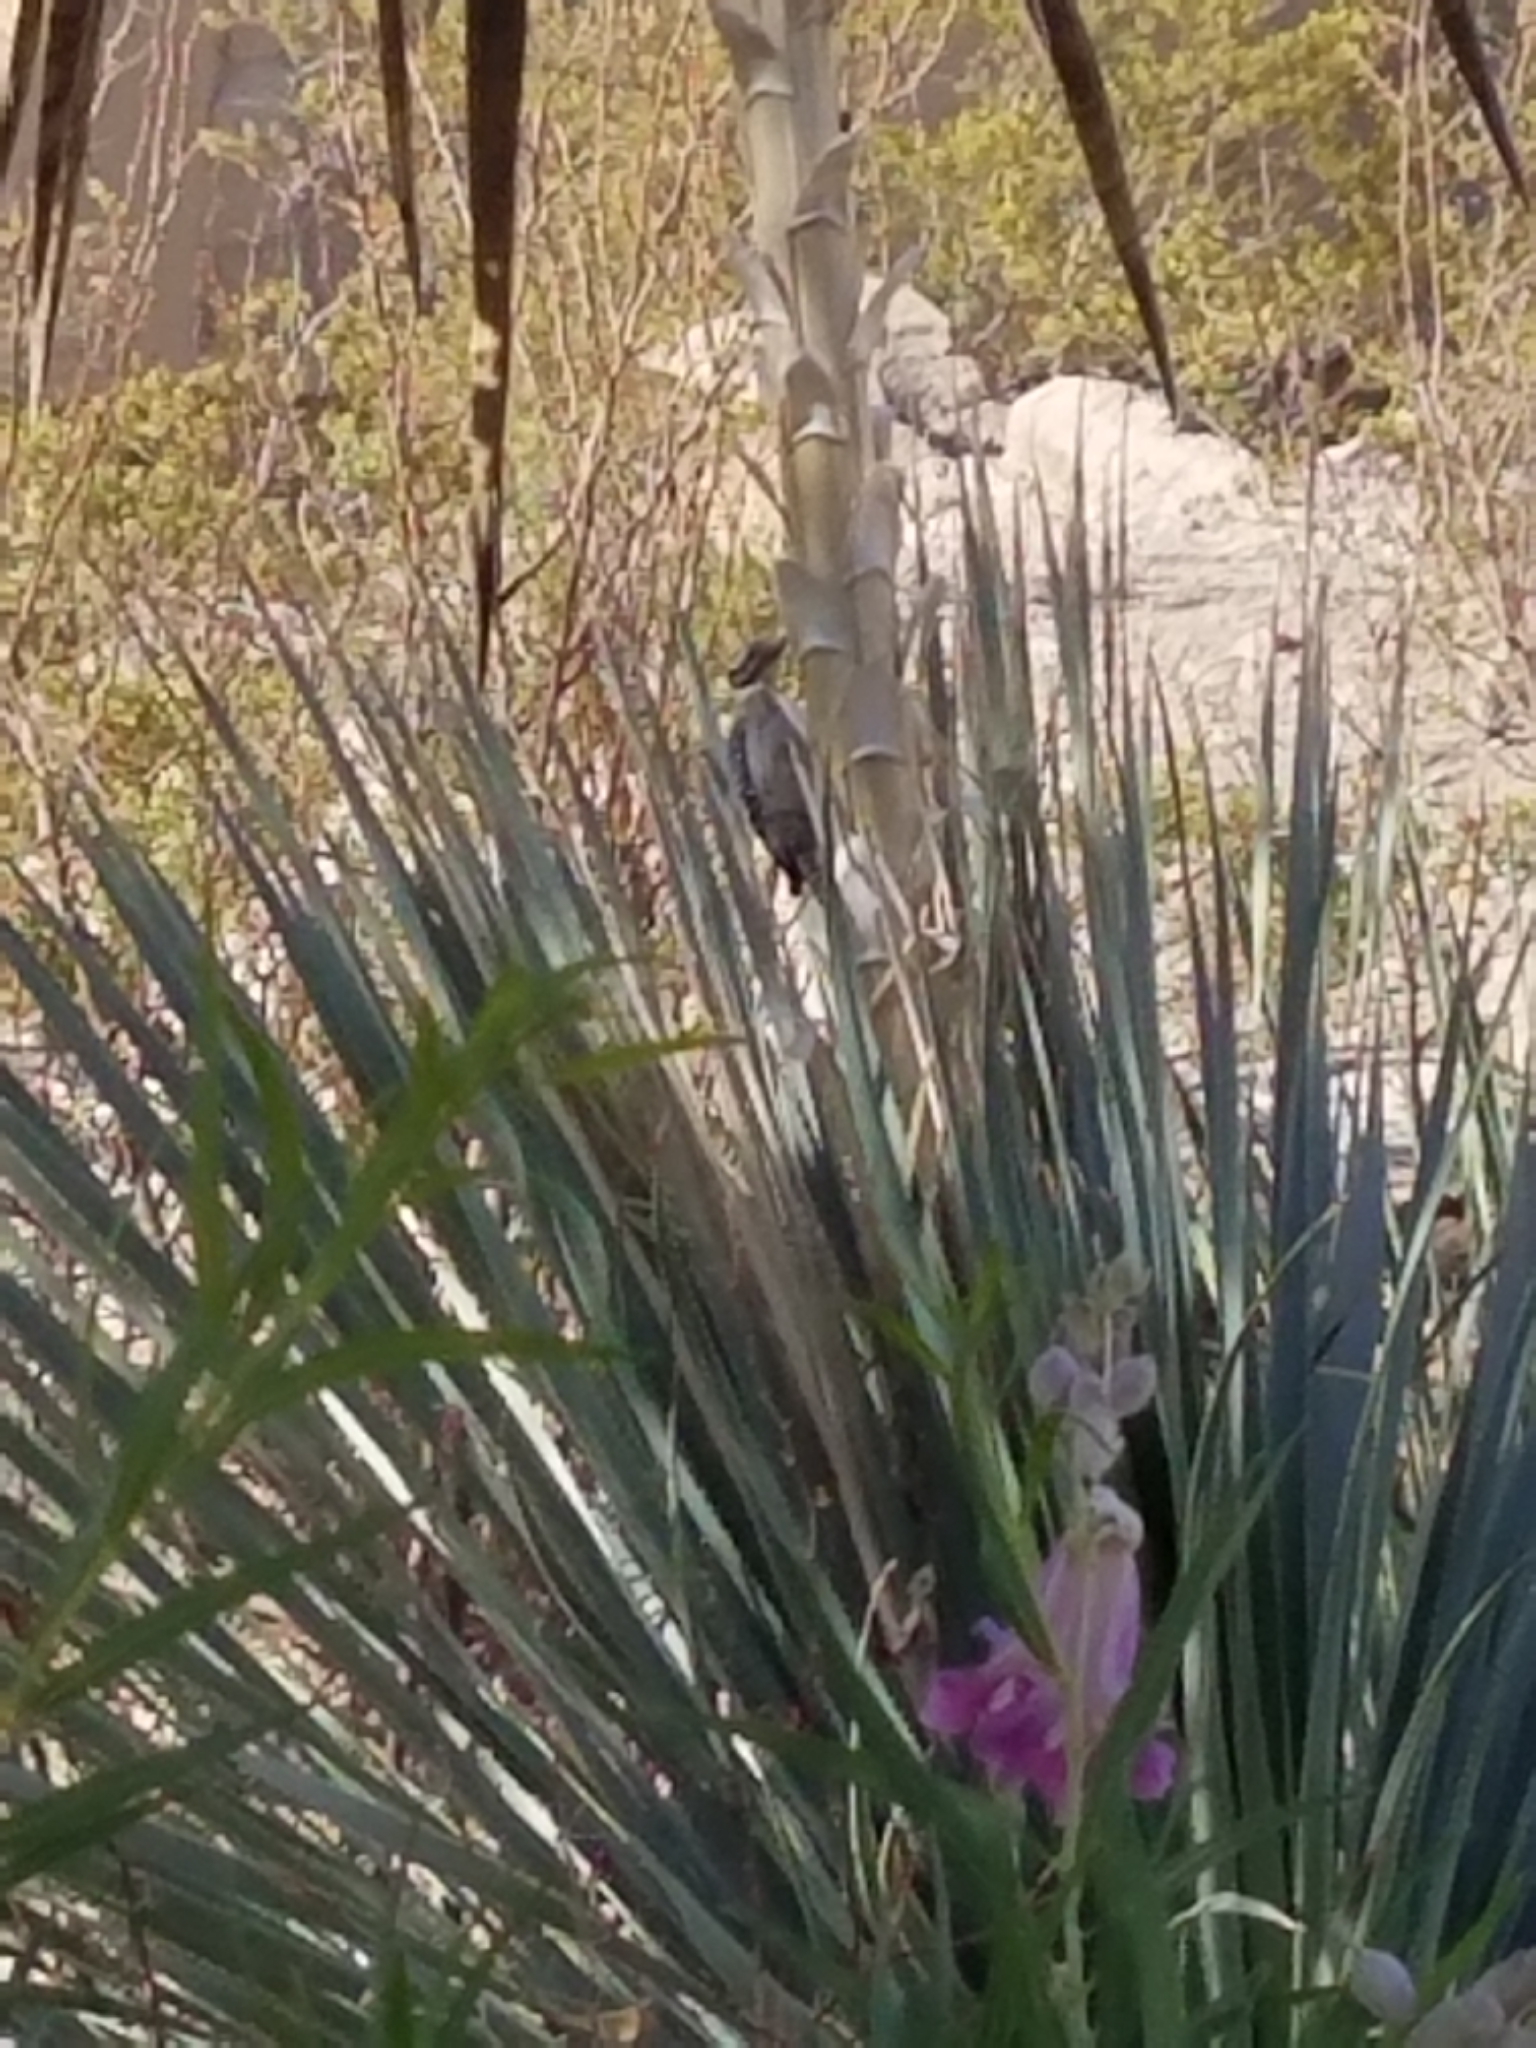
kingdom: Animalia
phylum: Chordata
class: Aves
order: Piciformes
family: Picidae
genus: Dryobates
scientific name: Dryobates scalaris
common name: Ladder-backed woodpecker
